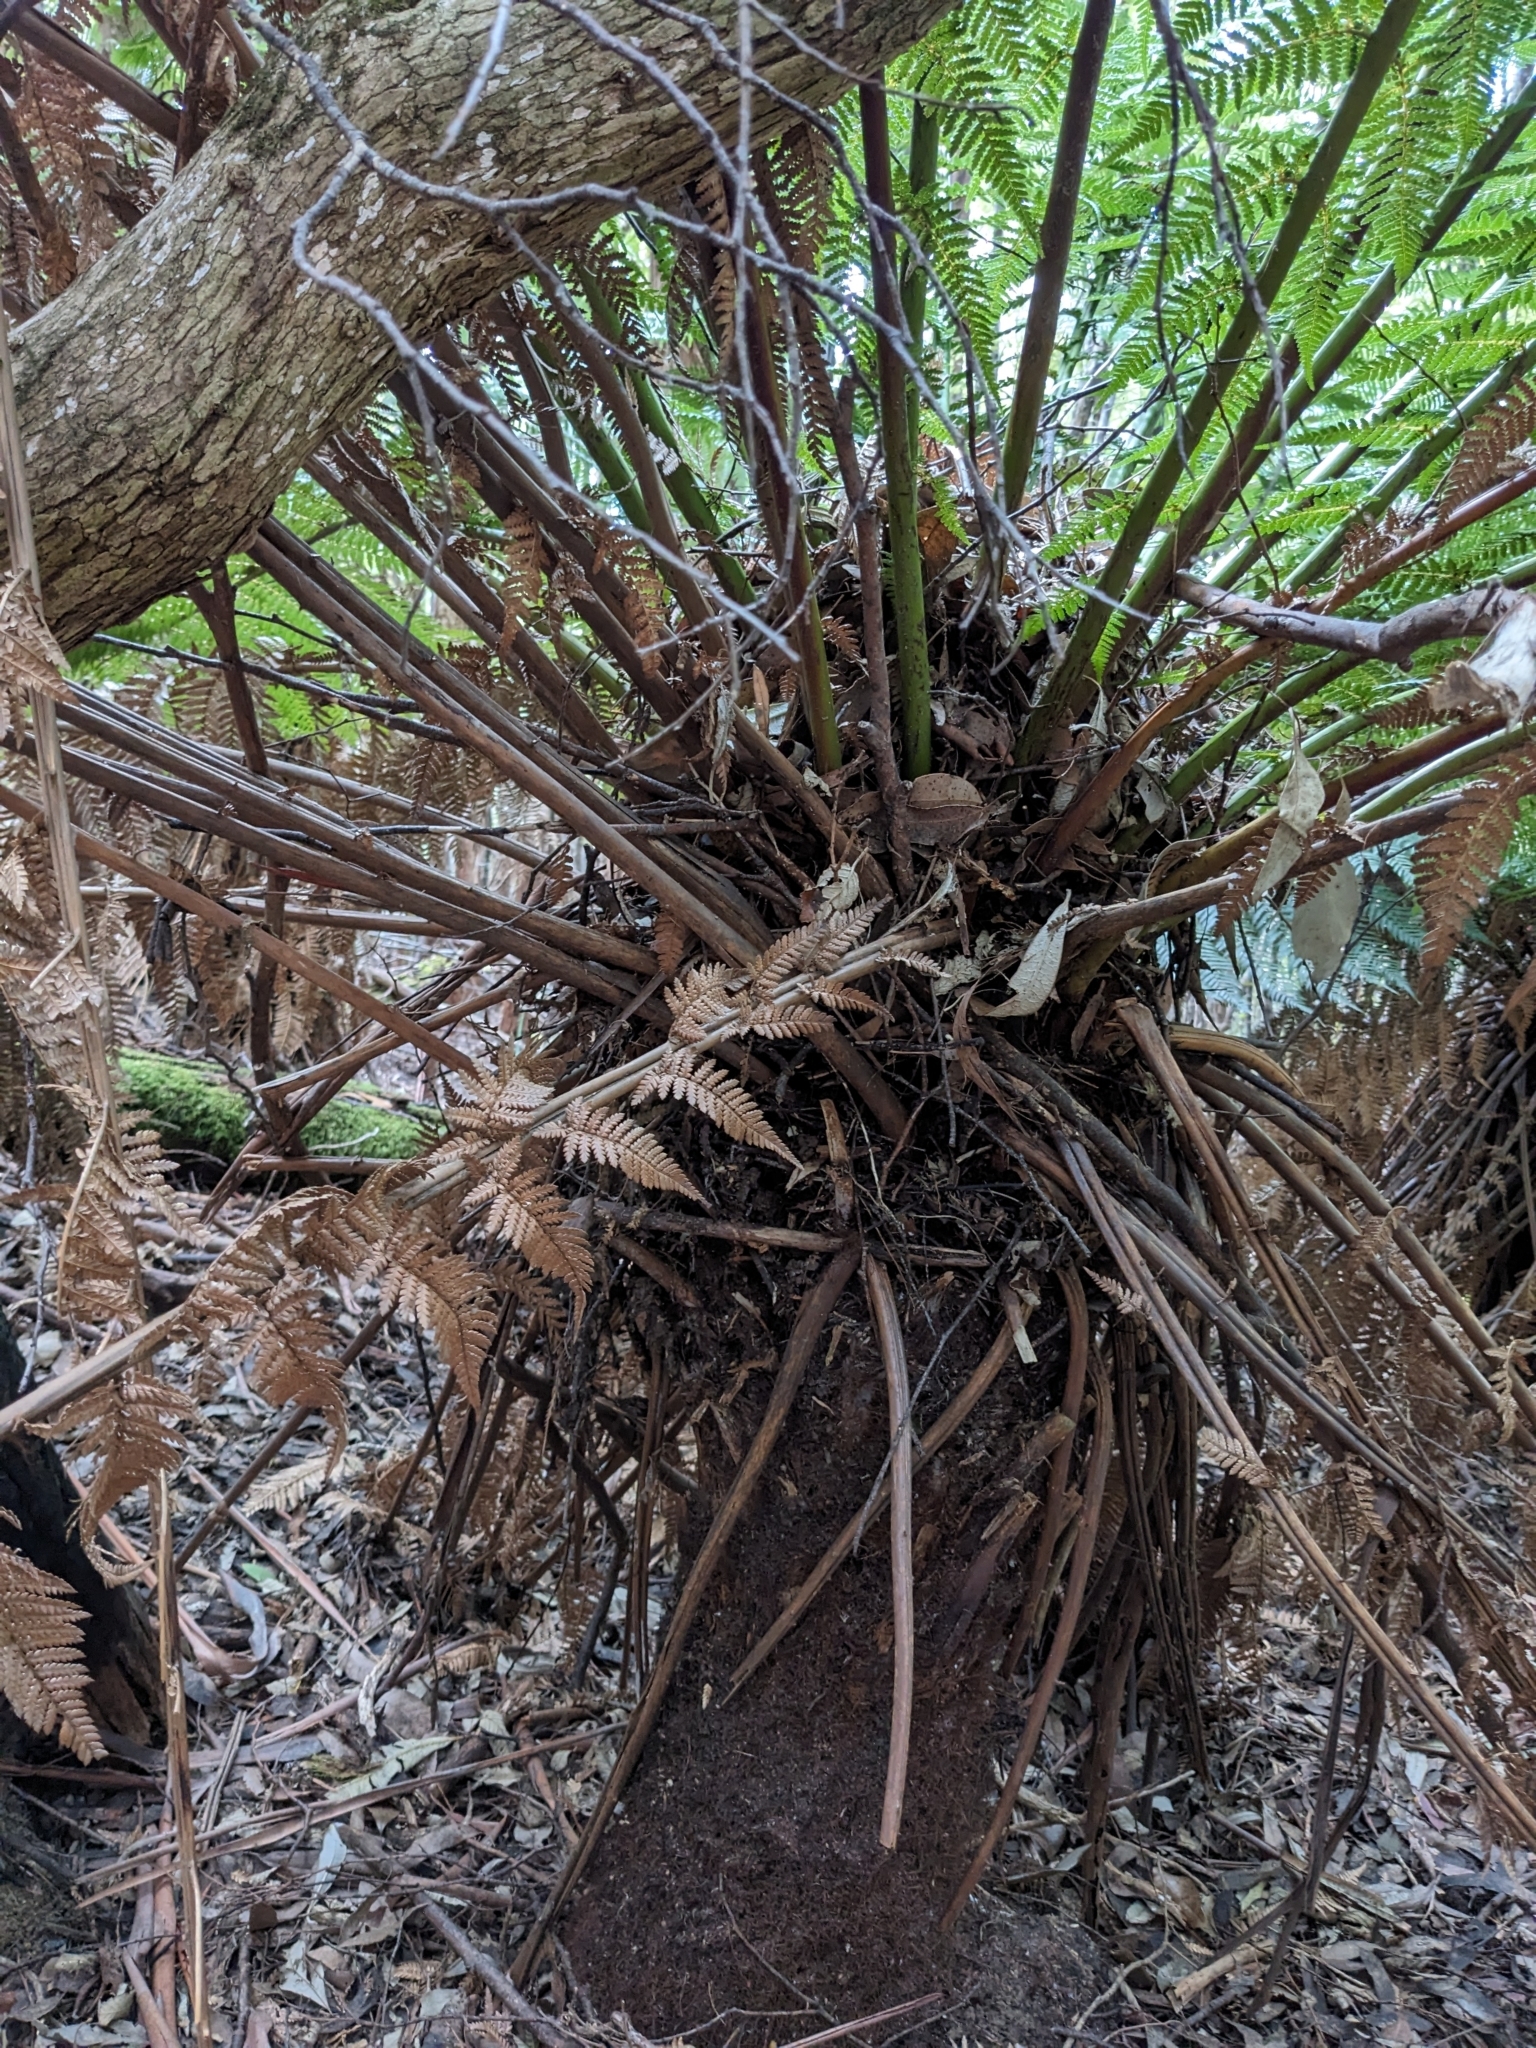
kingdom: Plantae
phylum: Tracheophyta
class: Polypodiopsida
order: Cyatheales
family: Dicksoniaceae
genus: Dicksonia
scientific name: Dicksonia antarctica
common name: Australian treefern
